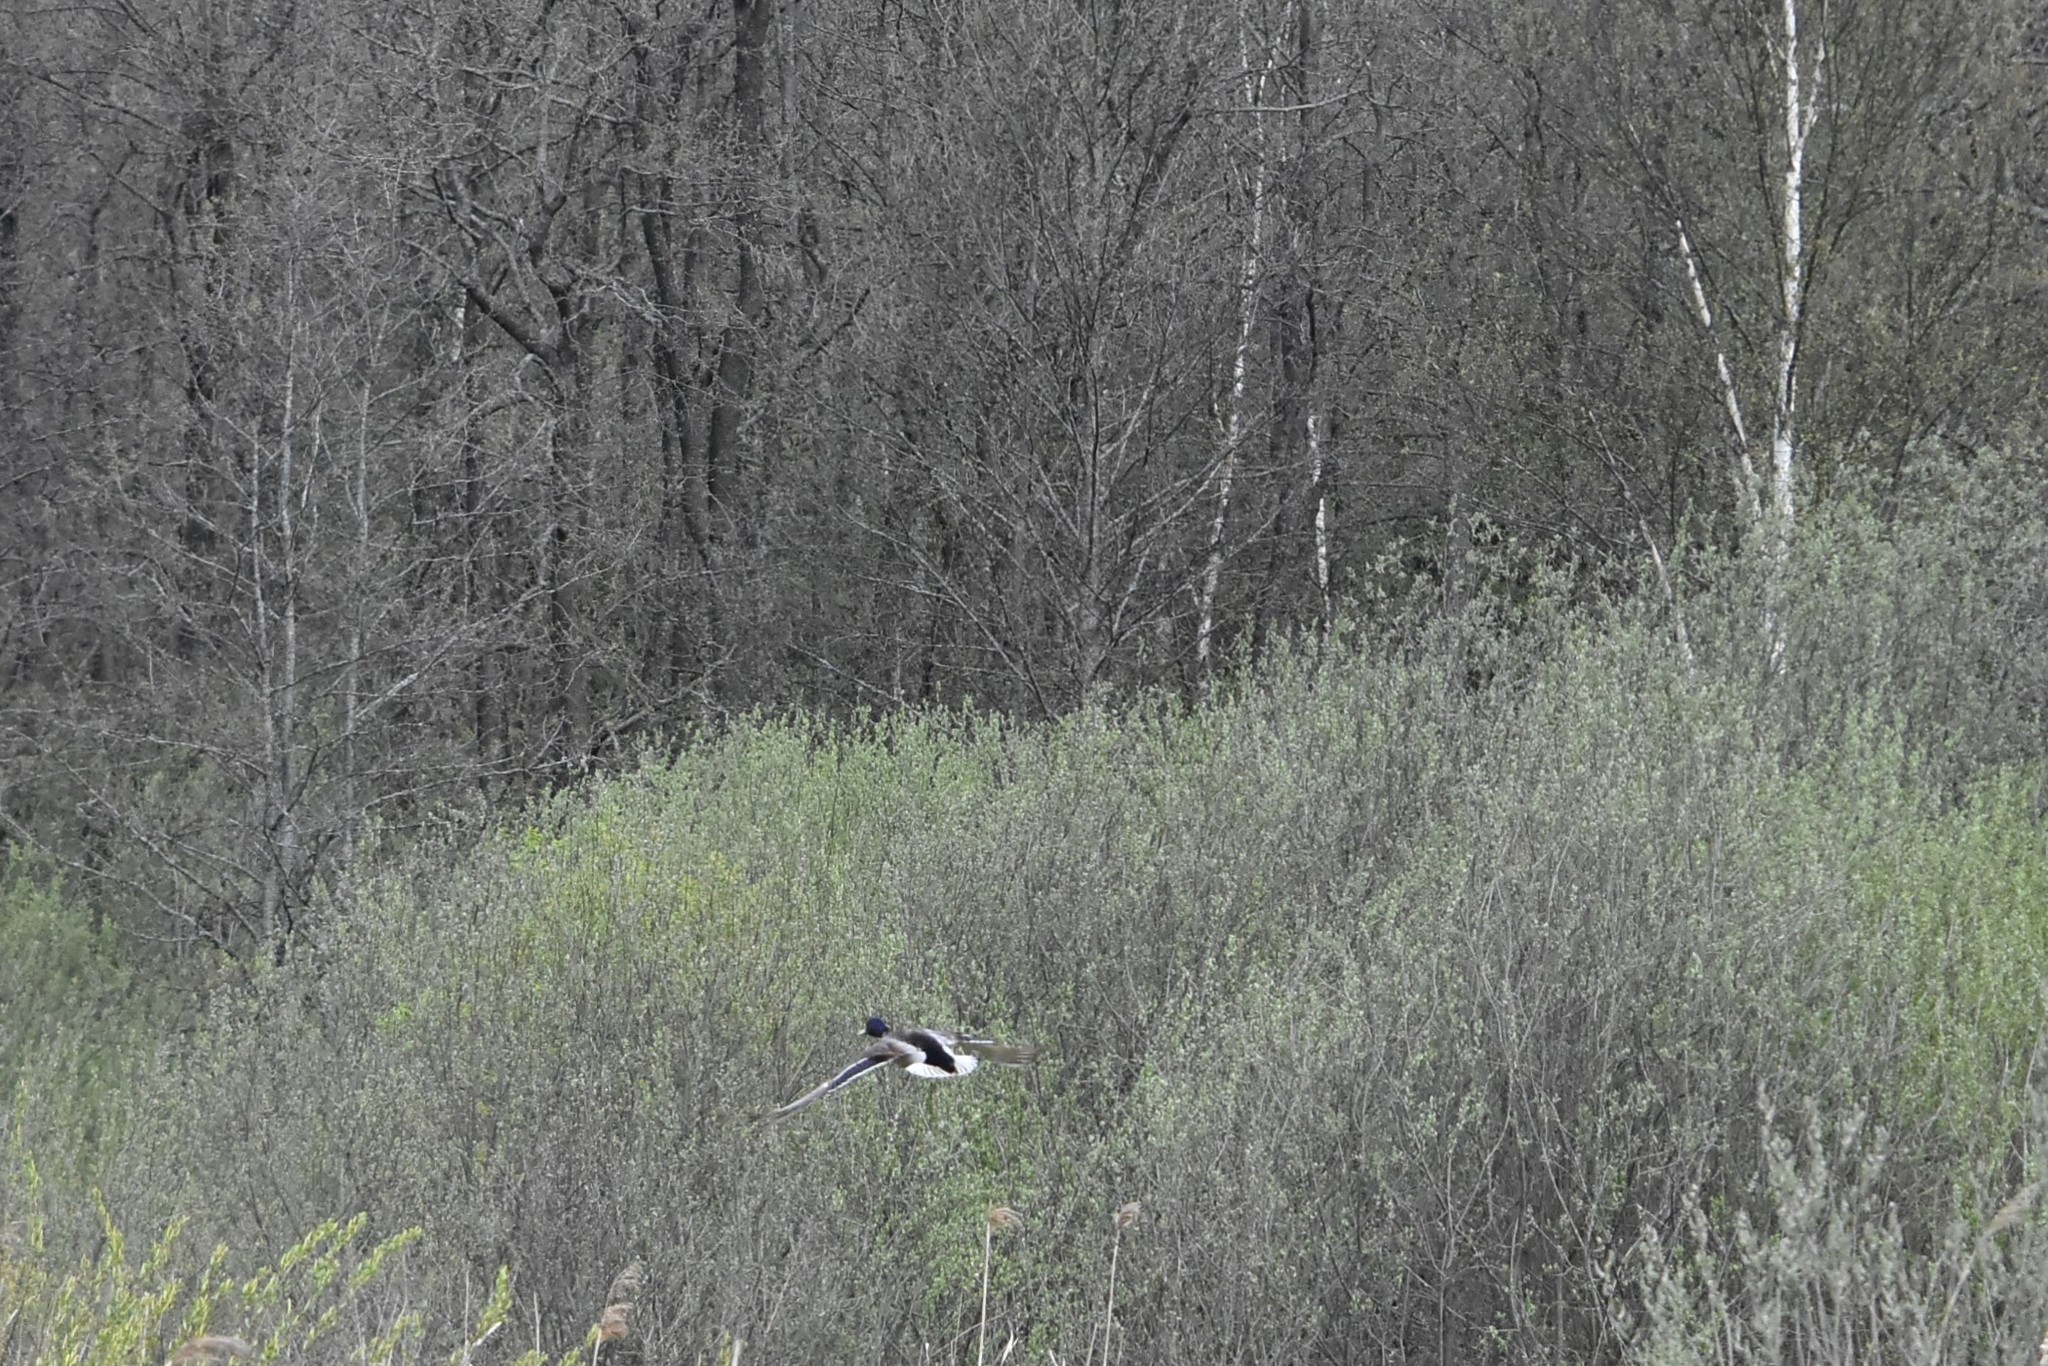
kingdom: Animalia
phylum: Chordata
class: Aves
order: Anseriformes
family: Anatidae
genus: Anas
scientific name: Anas platyrhynchos
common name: Mallard
